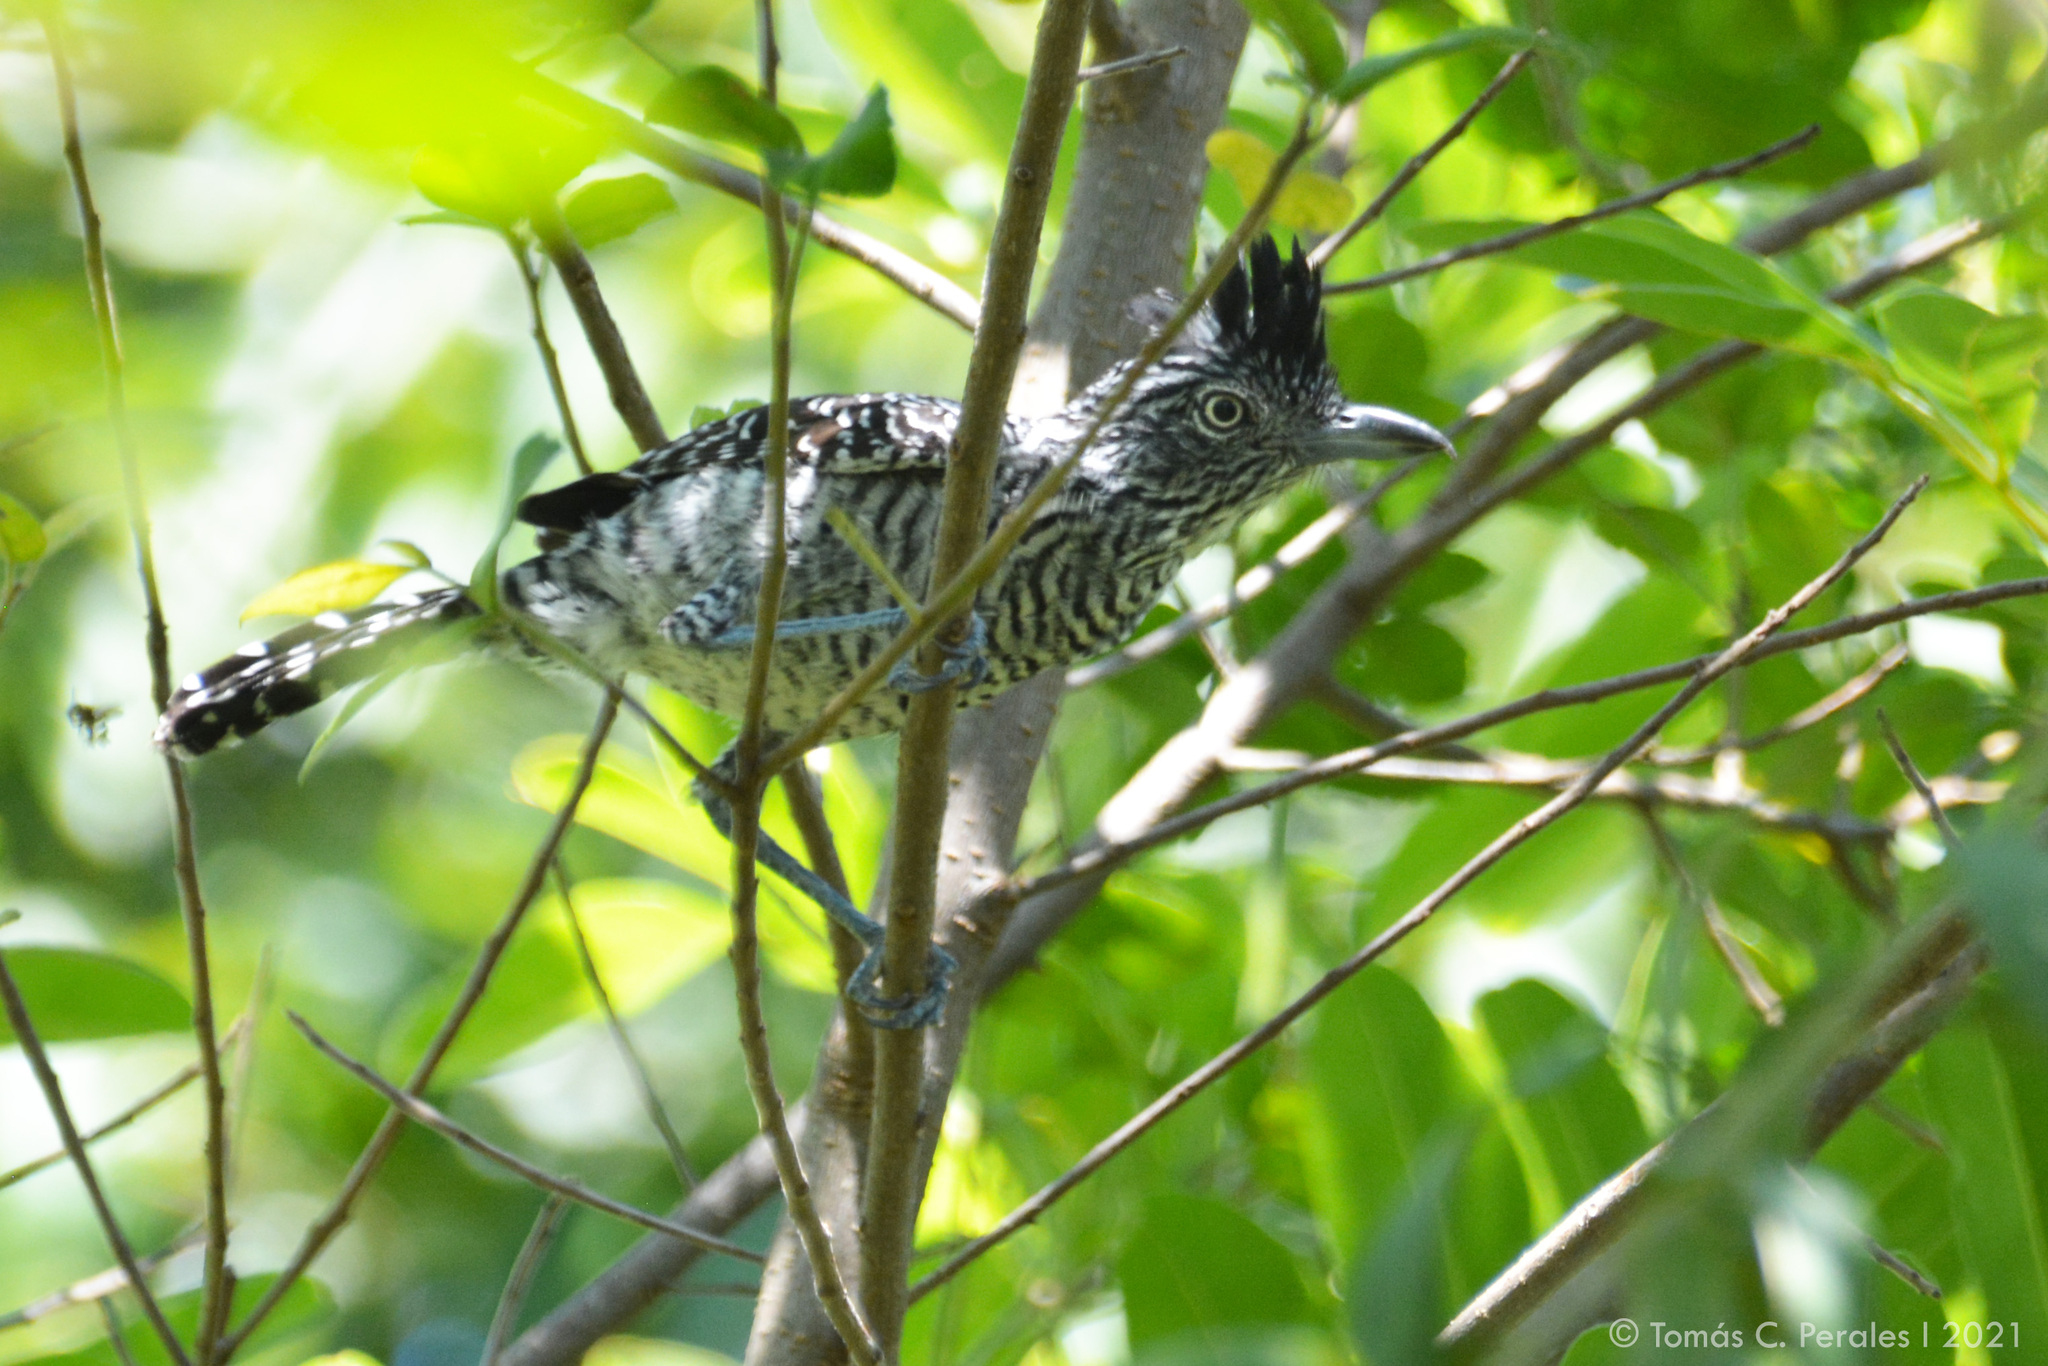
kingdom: Animalia
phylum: Chordata
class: Aves
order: Passeriformes
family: Thamnophilidae
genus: Thamnophilus
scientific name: Thamnophilus doliatus
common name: Barred antshrike
